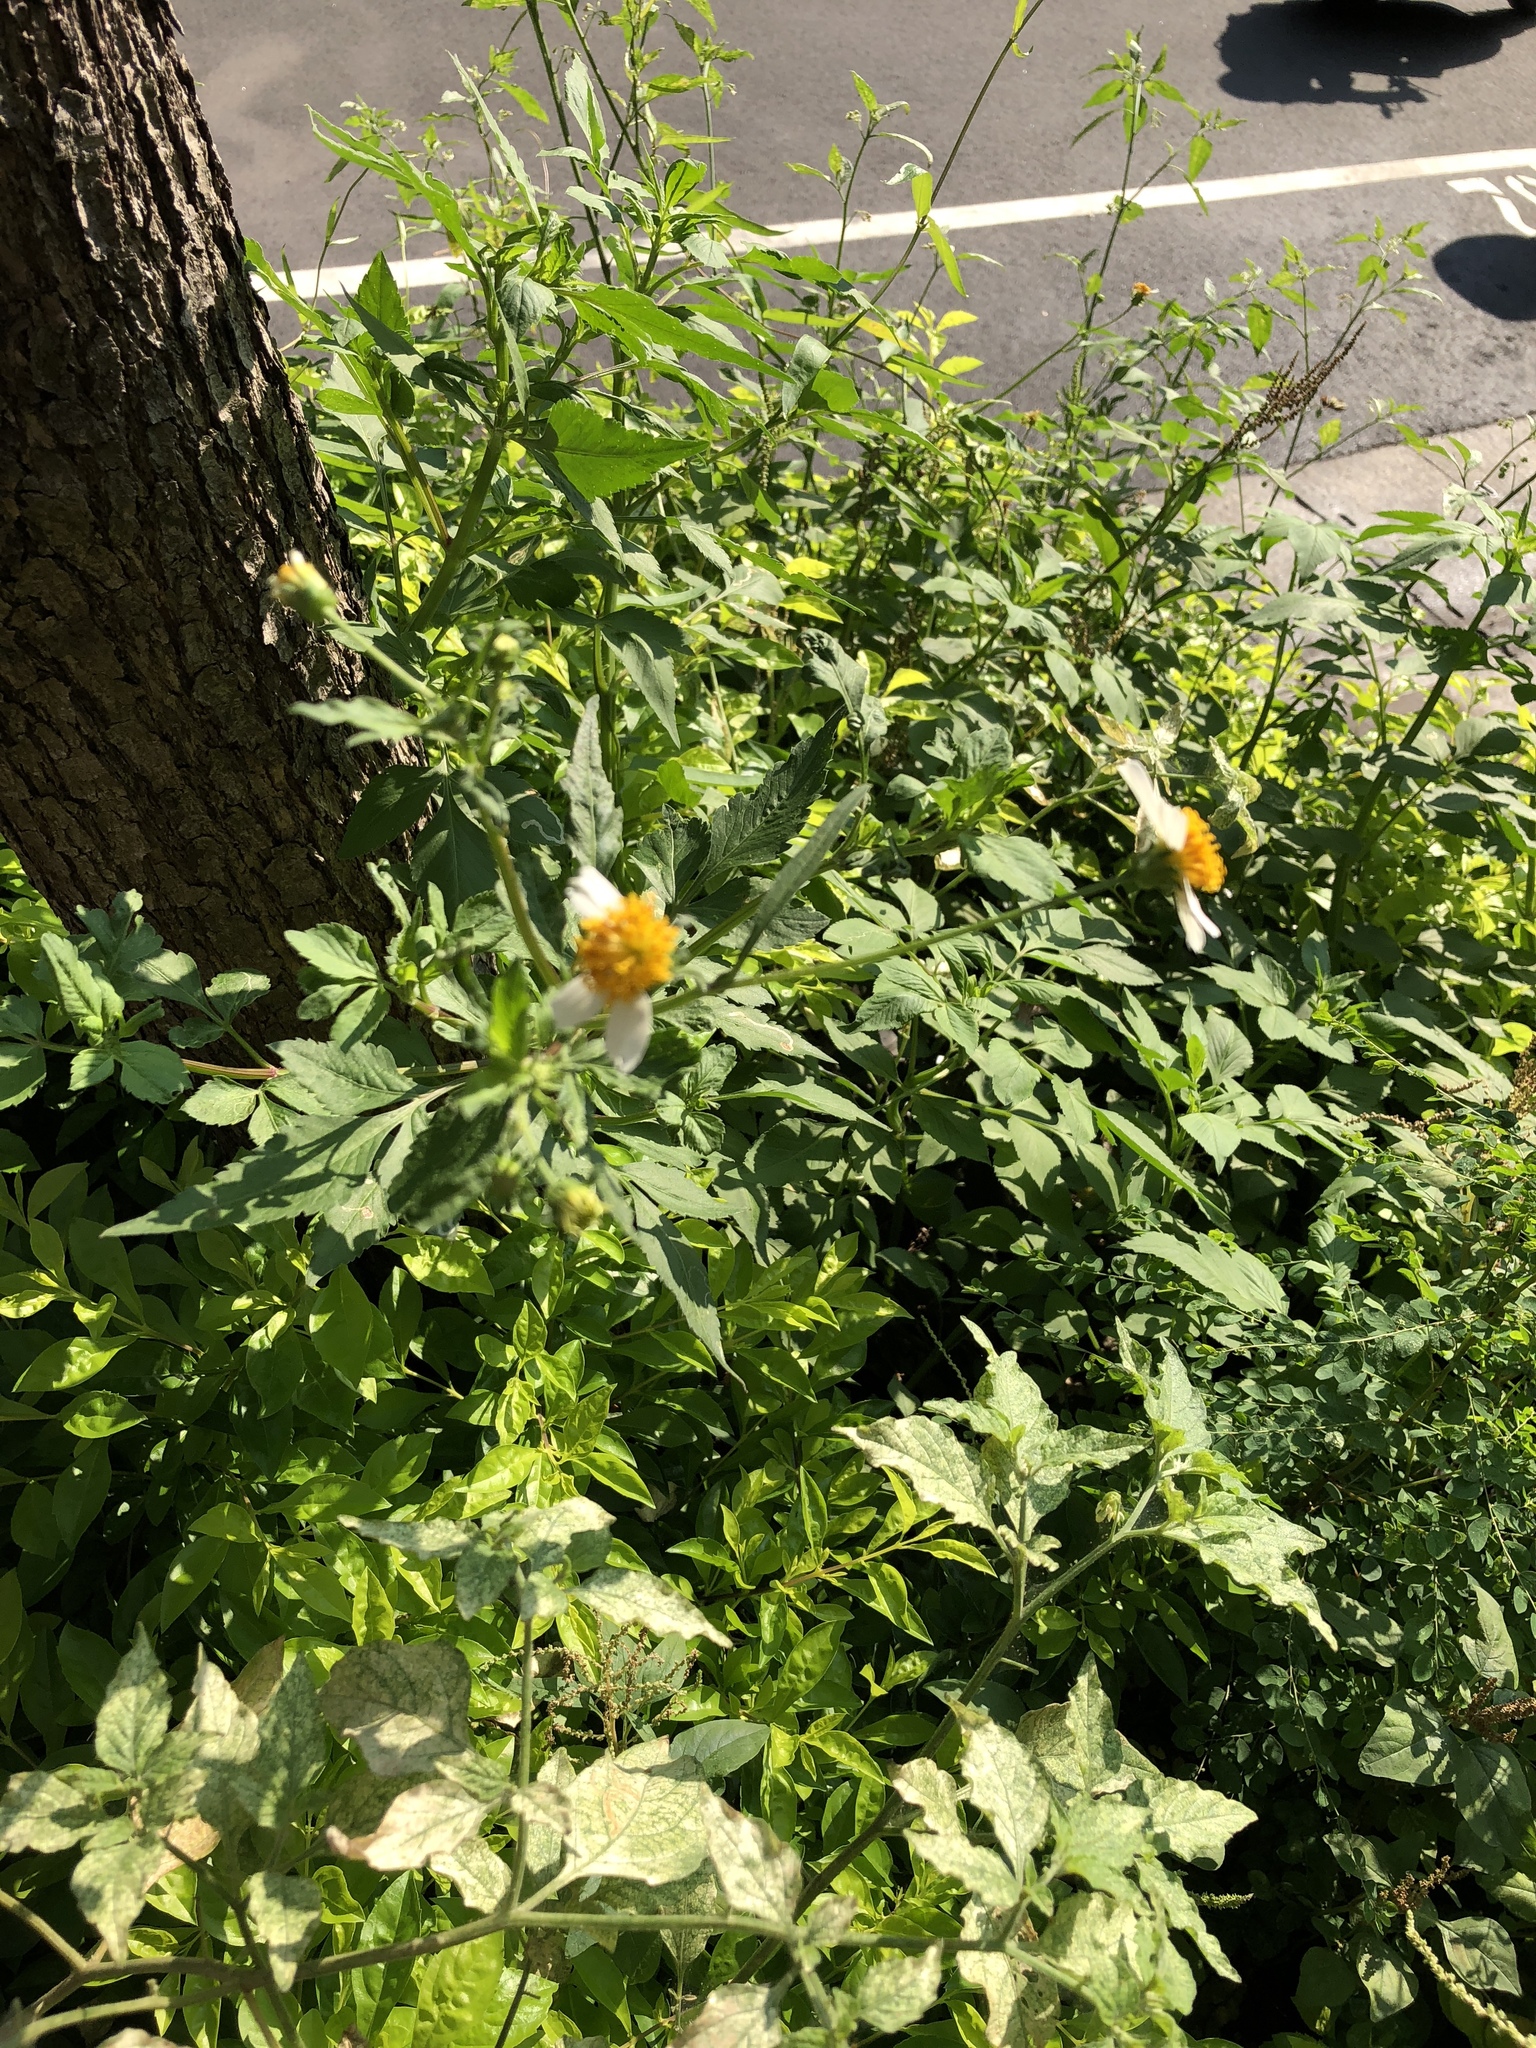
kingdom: Plantae
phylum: Tracheophyta
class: Magnoliopsida
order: Asterales
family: Asteraceae
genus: Bidens
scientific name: Bidens alba
